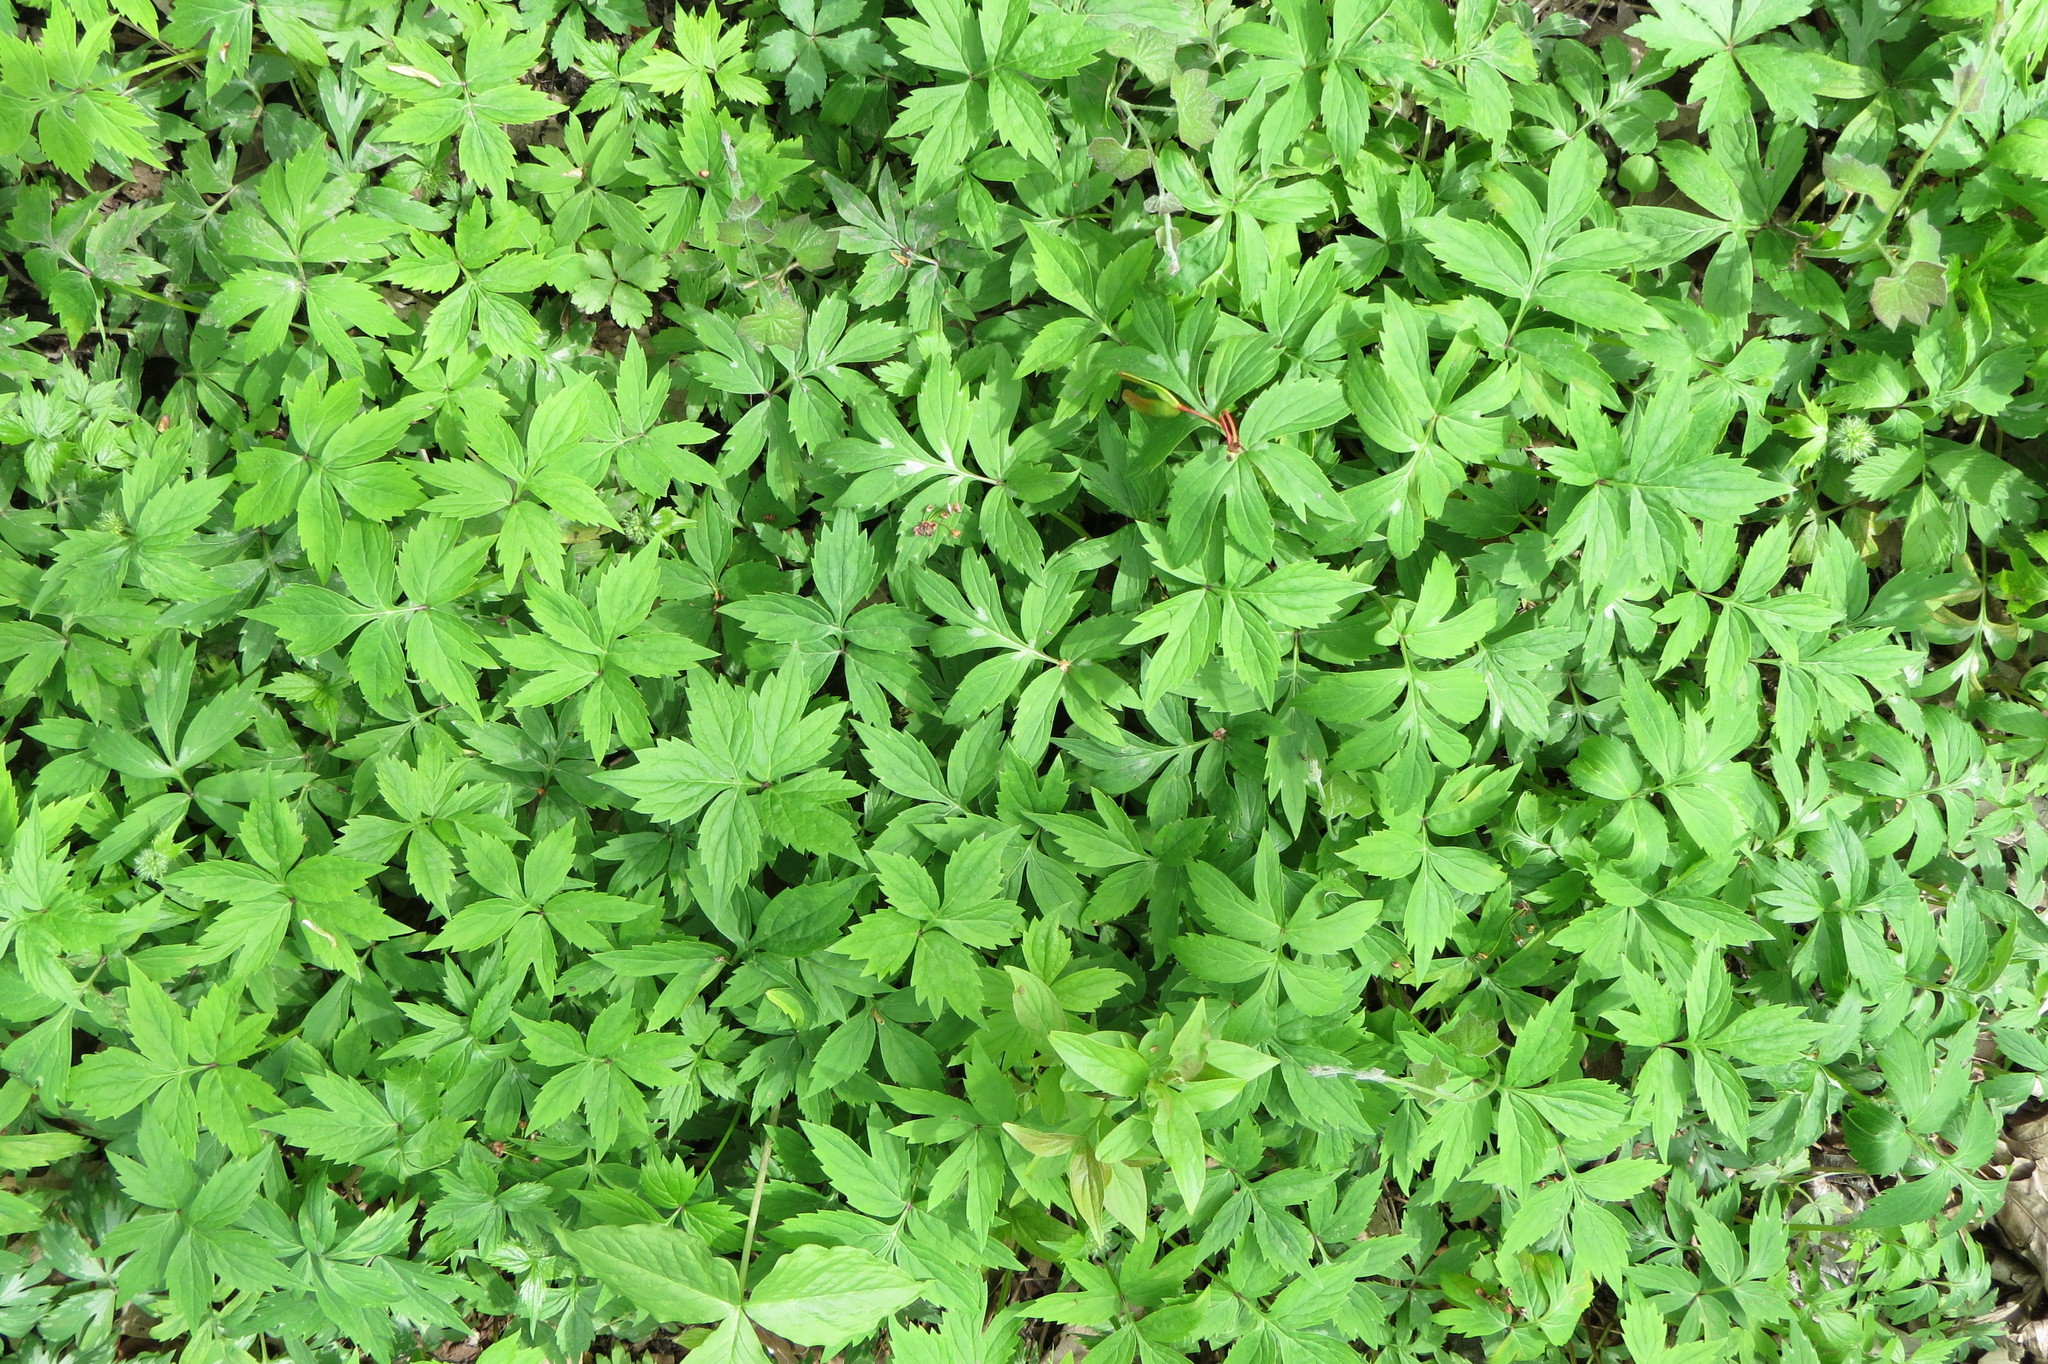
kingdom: Plantae
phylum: Tracheophyta
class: Magnoliopsida
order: Boraginales
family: Hydrophyllaceae
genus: Hydrophyllum
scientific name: Hydrophyllum virginianum
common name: Virginia waterleaf
